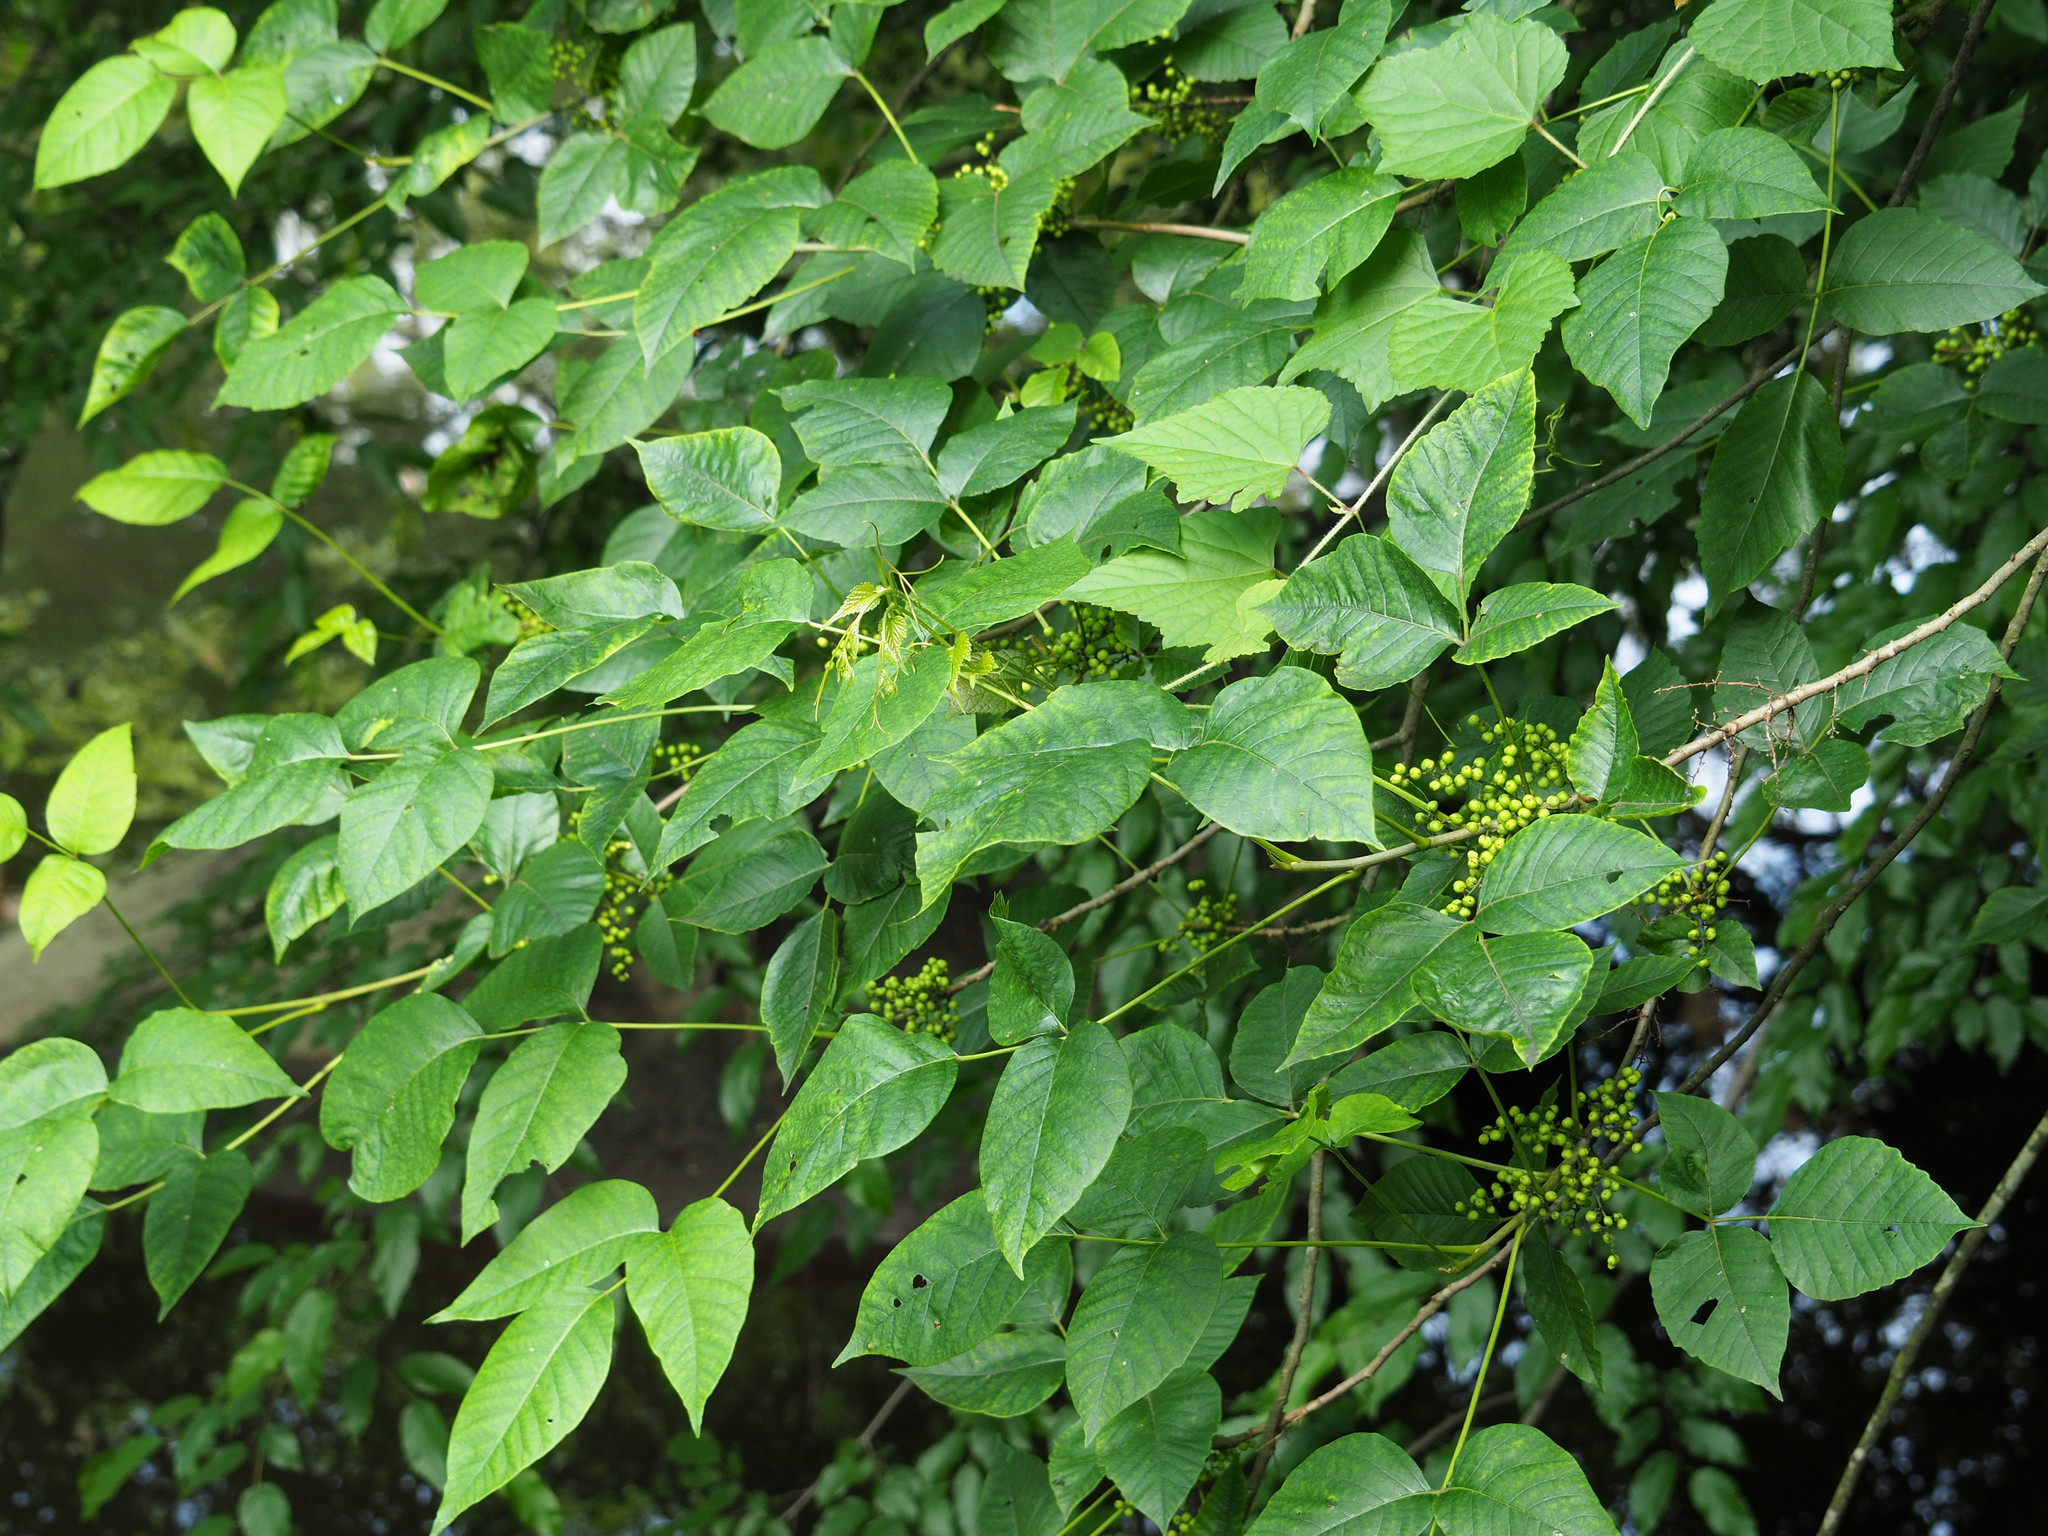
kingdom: Plantae
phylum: Tracheophyta
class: Magnoliopsida
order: Sapindales
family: Anacardiaceae
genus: Toxicodendron
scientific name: Toxicodendron radicans
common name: Poison ivy
